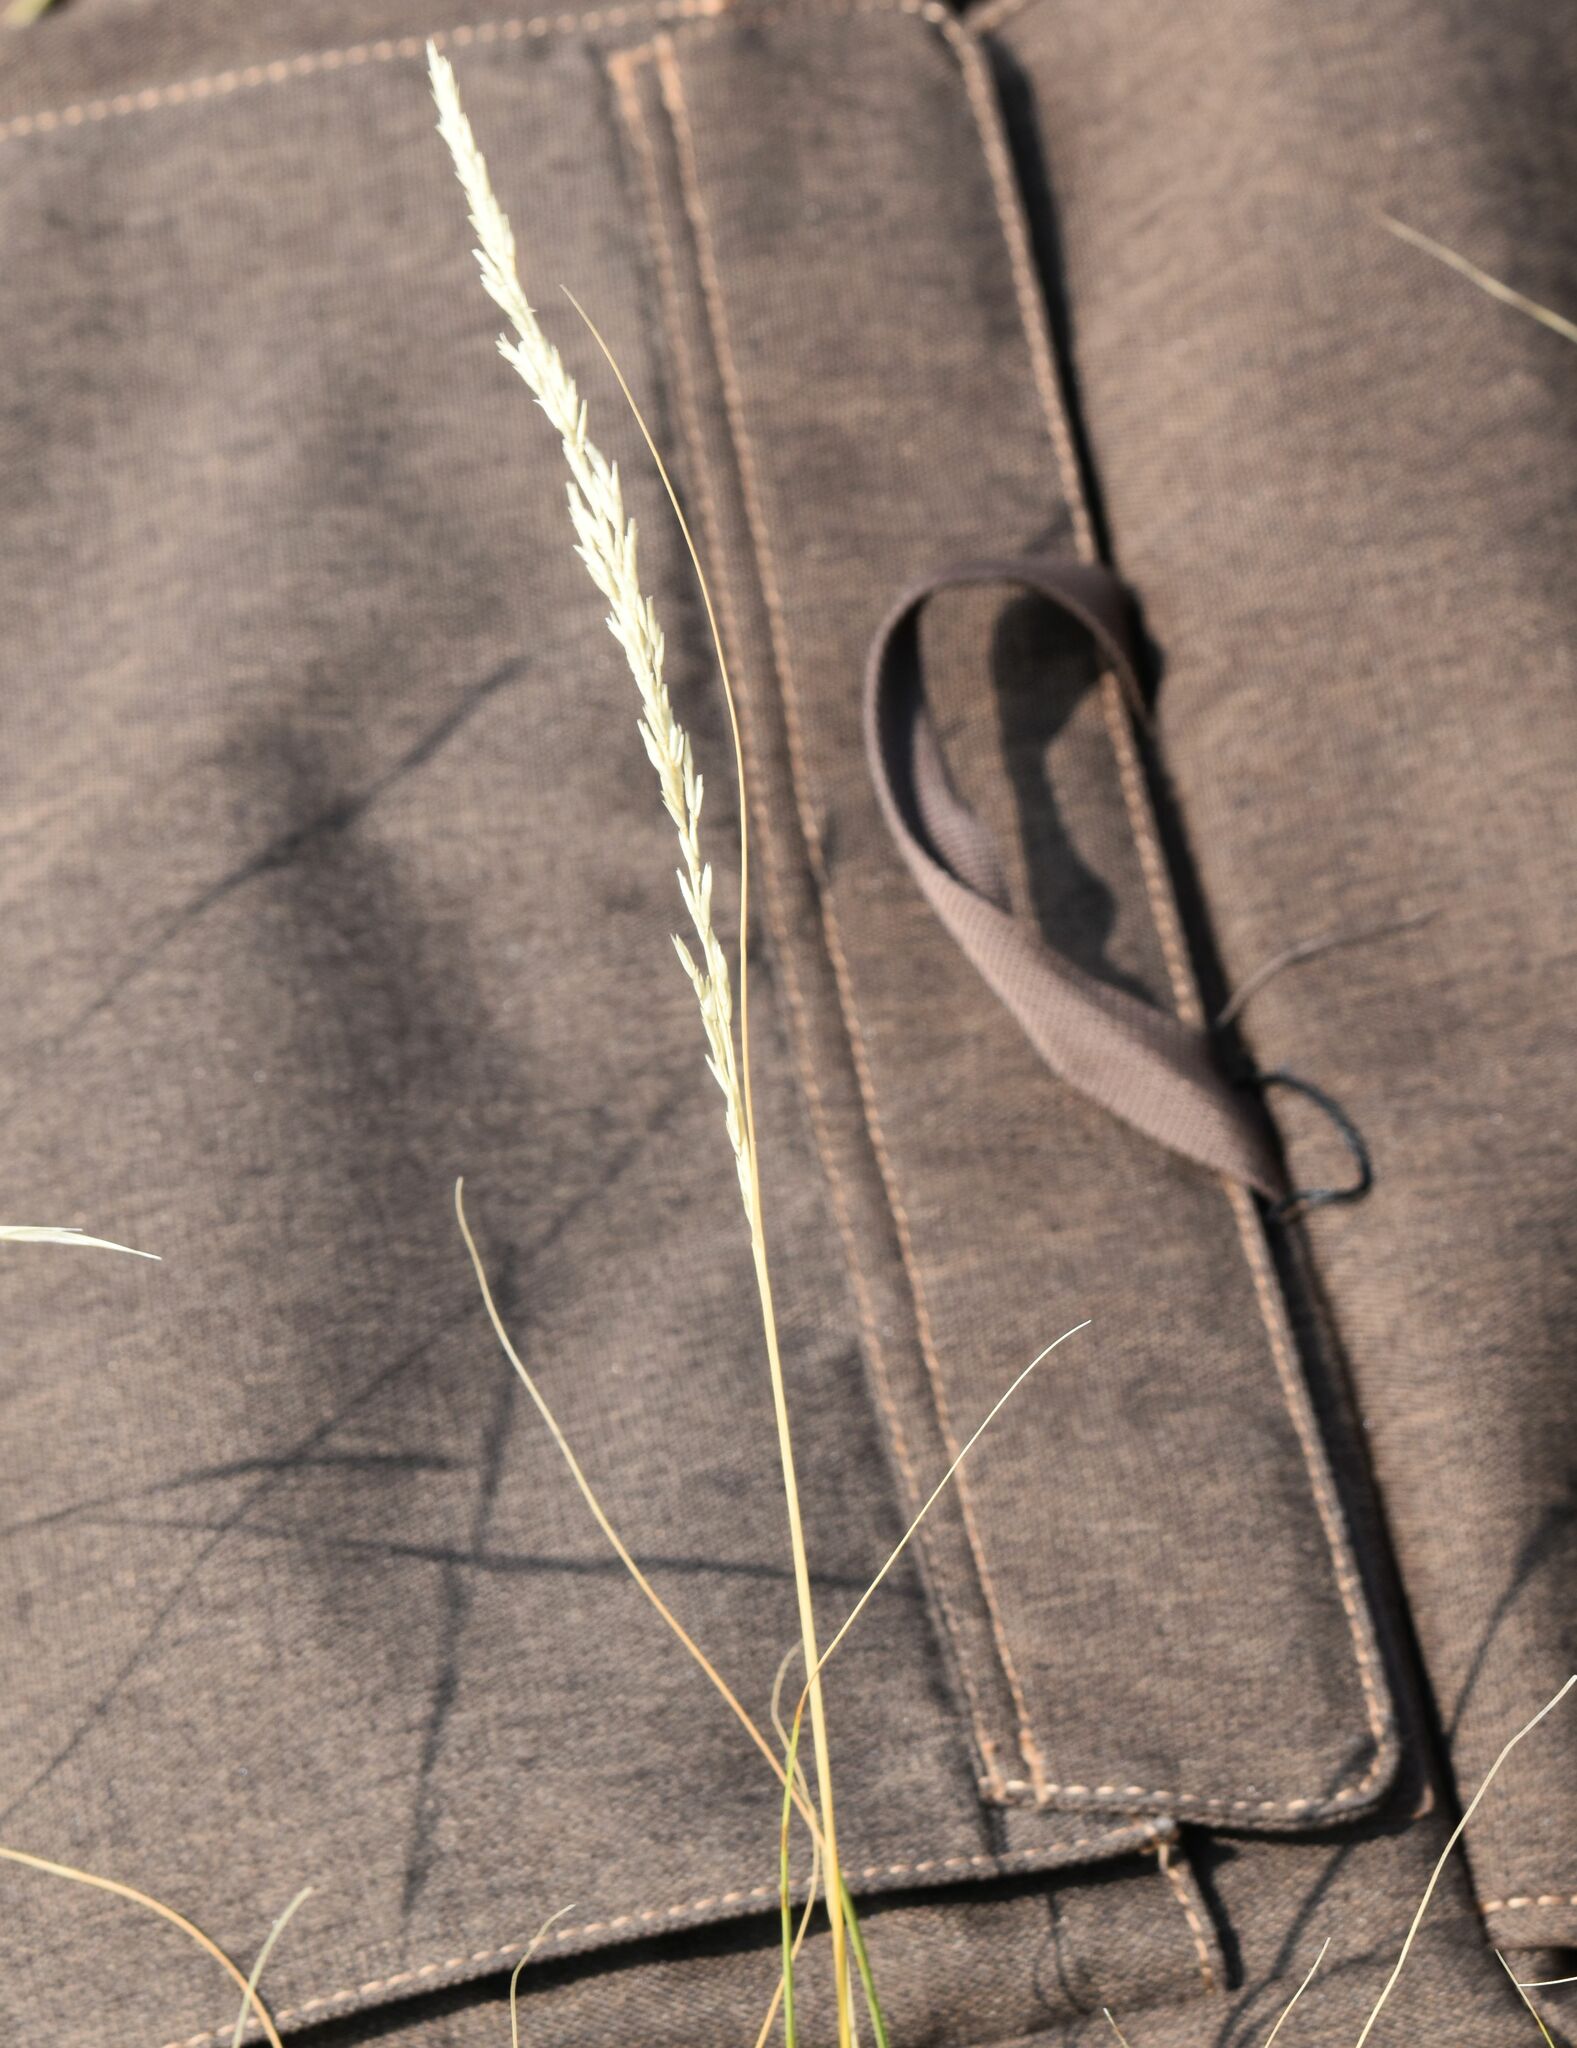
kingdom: Plantae
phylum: Tracheophyta
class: Liliopsida
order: Poales
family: Poaceae
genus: Sporobolus
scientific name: Sporobolus rigidus
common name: Prairie sandreed
